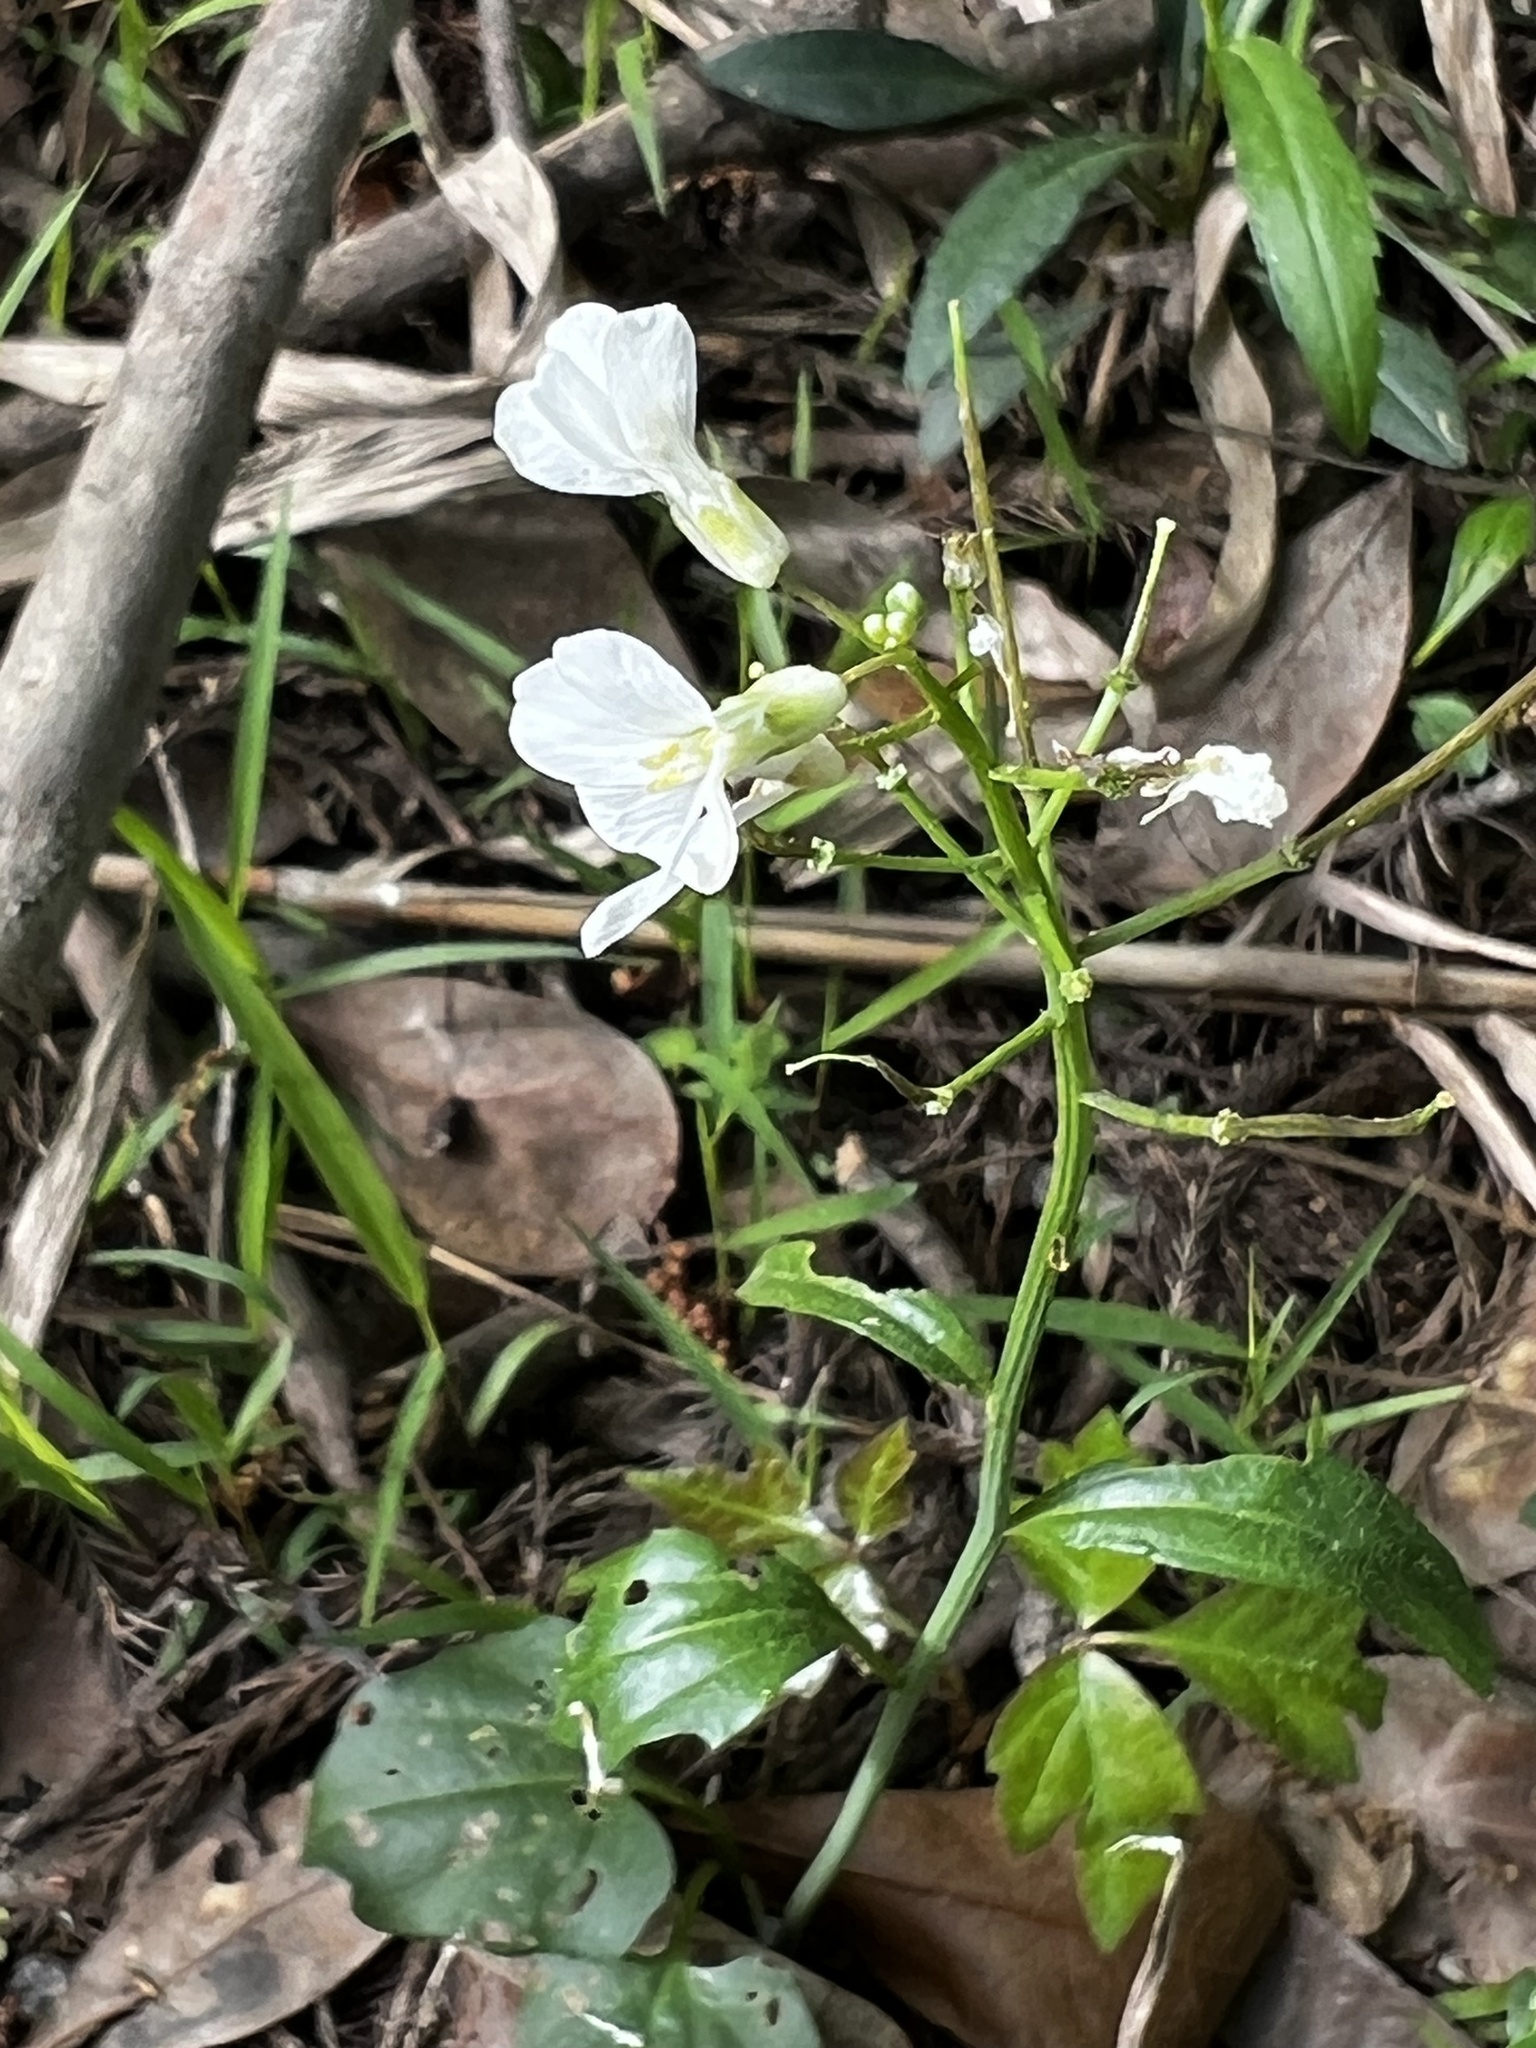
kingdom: Plantae
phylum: Tracheophyta
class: Magnoliopsida
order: Brassicales
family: Brassicaceae
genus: Cardamine
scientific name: Cardamine bulbosa
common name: Spring cress
